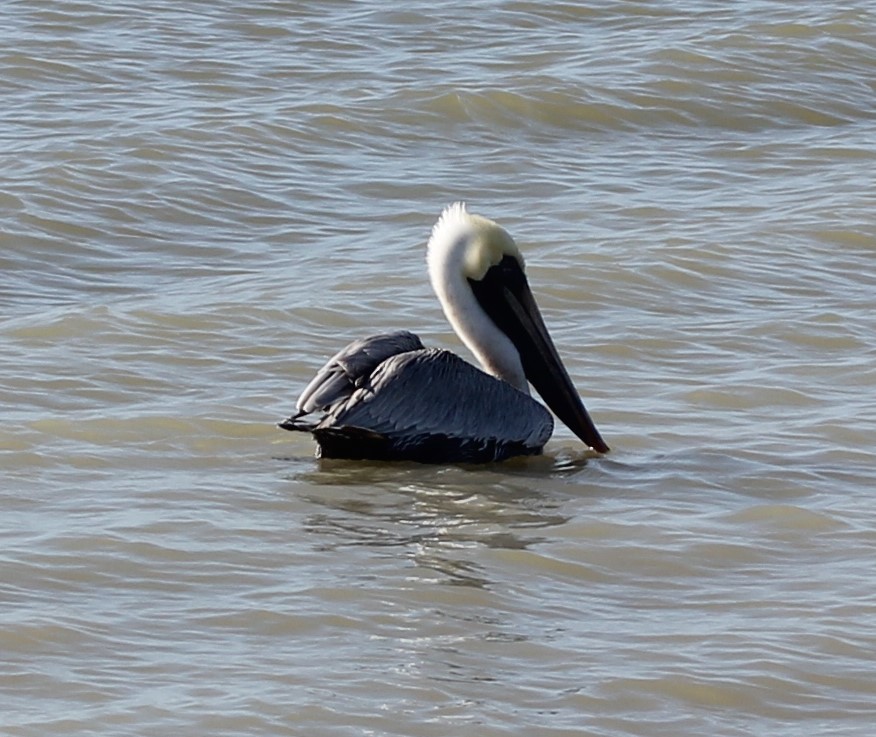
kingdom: Animalia
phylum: Chordata
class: Aves
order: Pelecaniformes
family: Pelecanidae
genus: Pelecanus
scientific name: Pelecanus occidentalis
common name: Brown pelican
